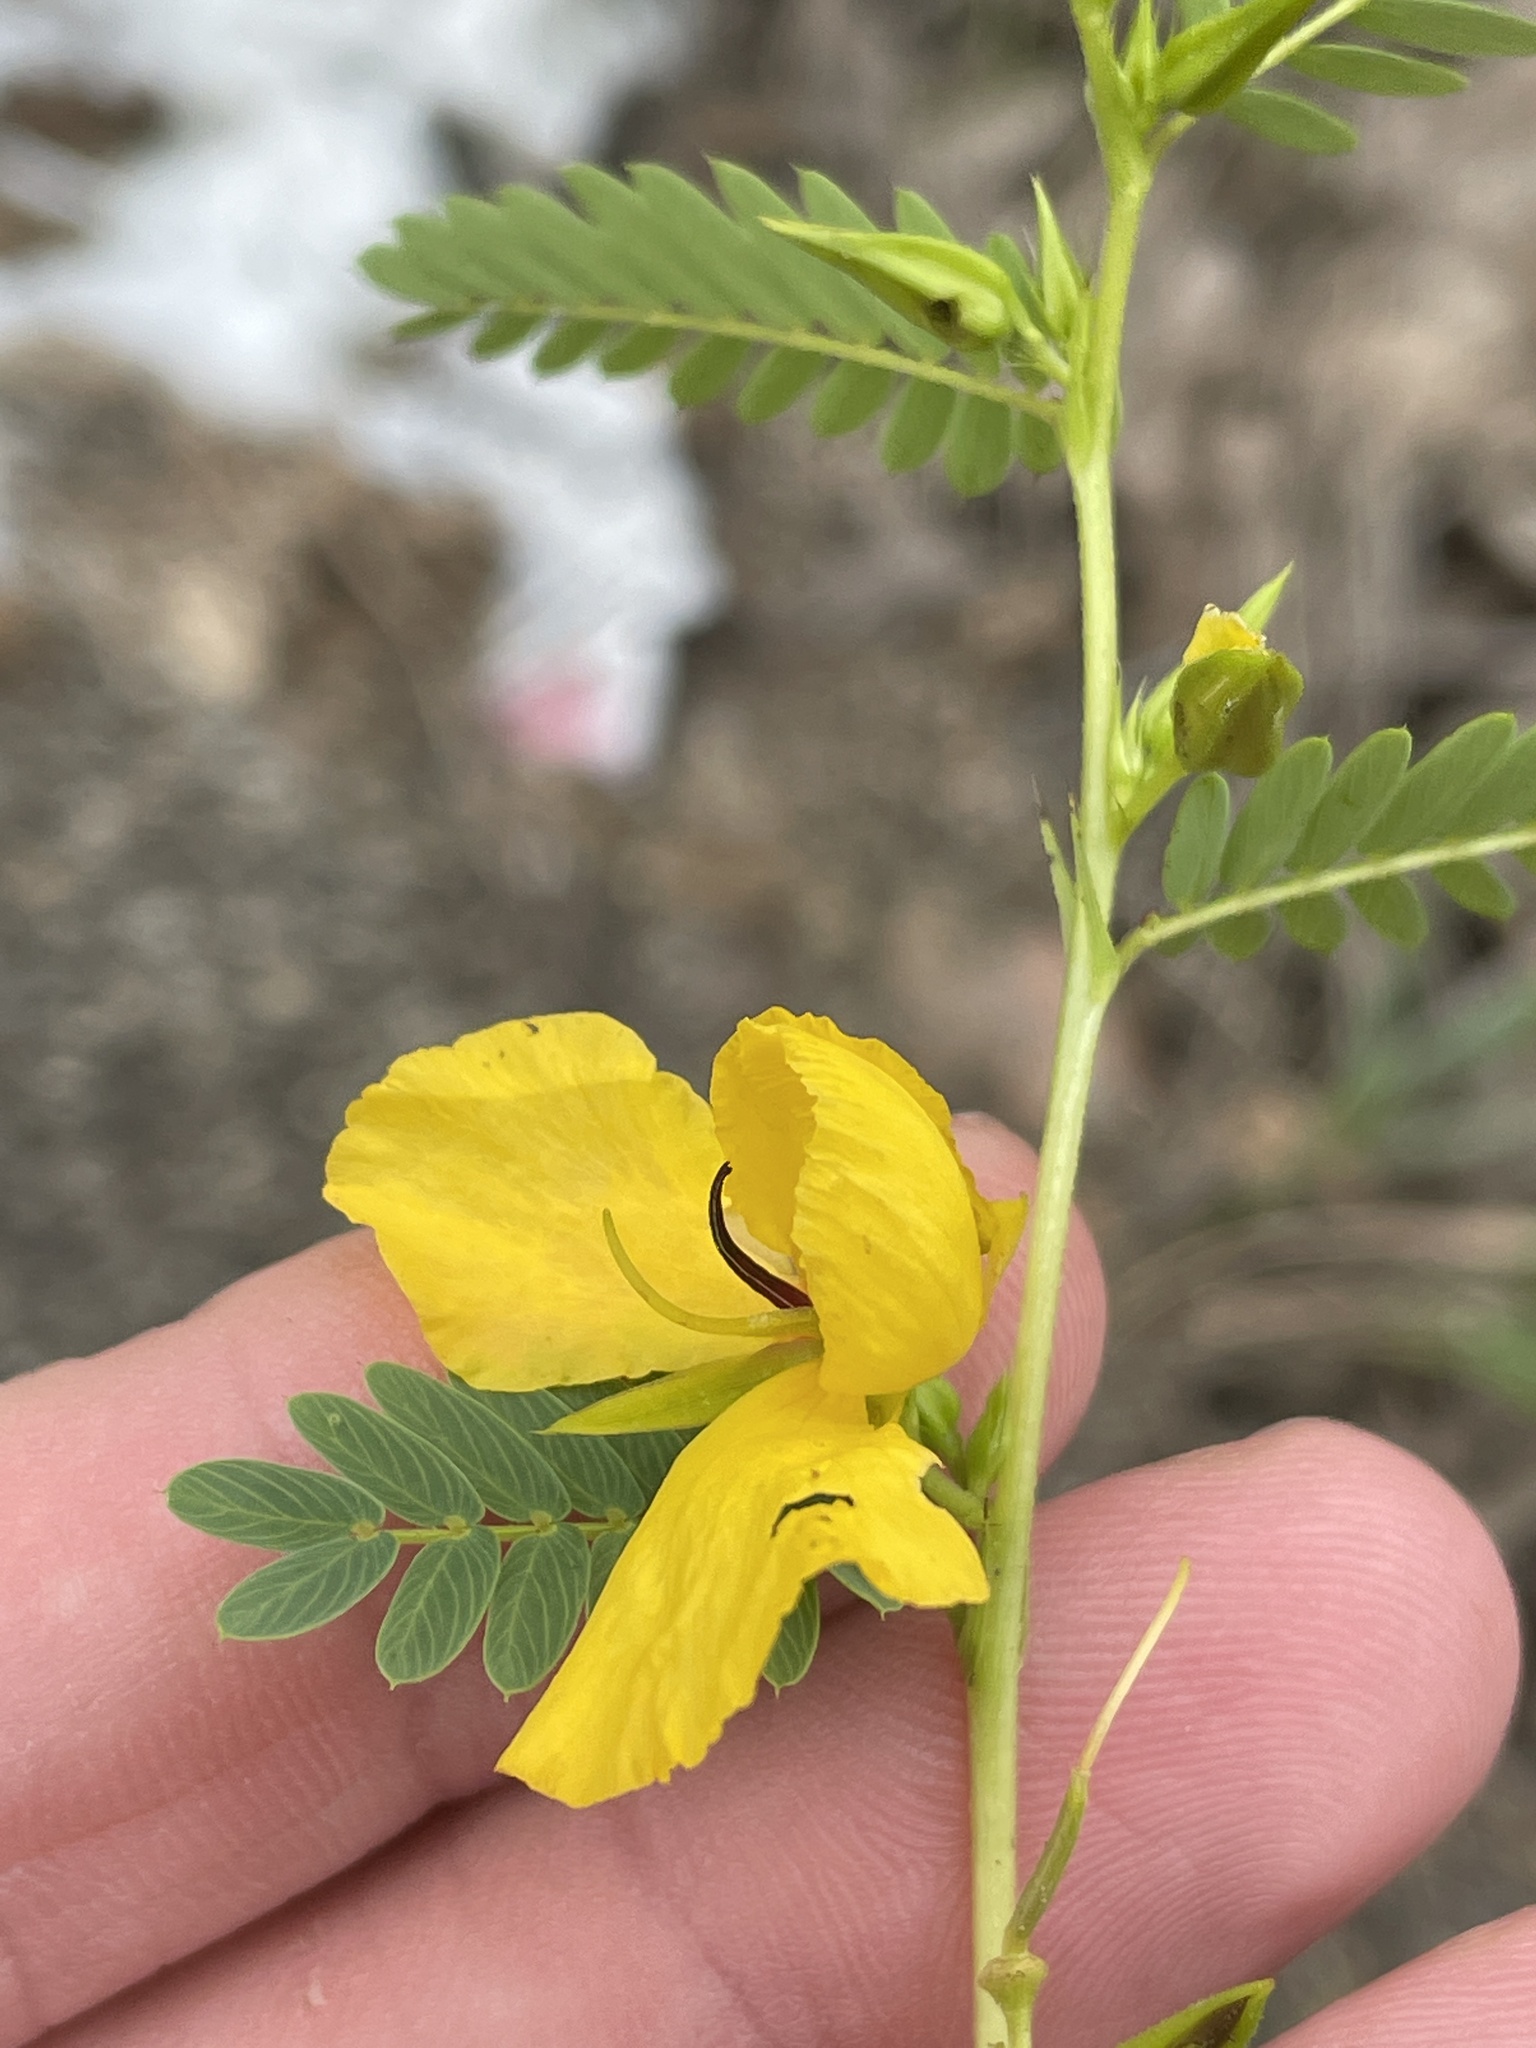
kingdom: Plantae
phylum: Tracheophyta
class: Magnoliopsida
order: Fabales
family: Fabaceae
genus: Chamaecrista
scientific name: Chamaecrista fasciculata
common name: Golden cassia
